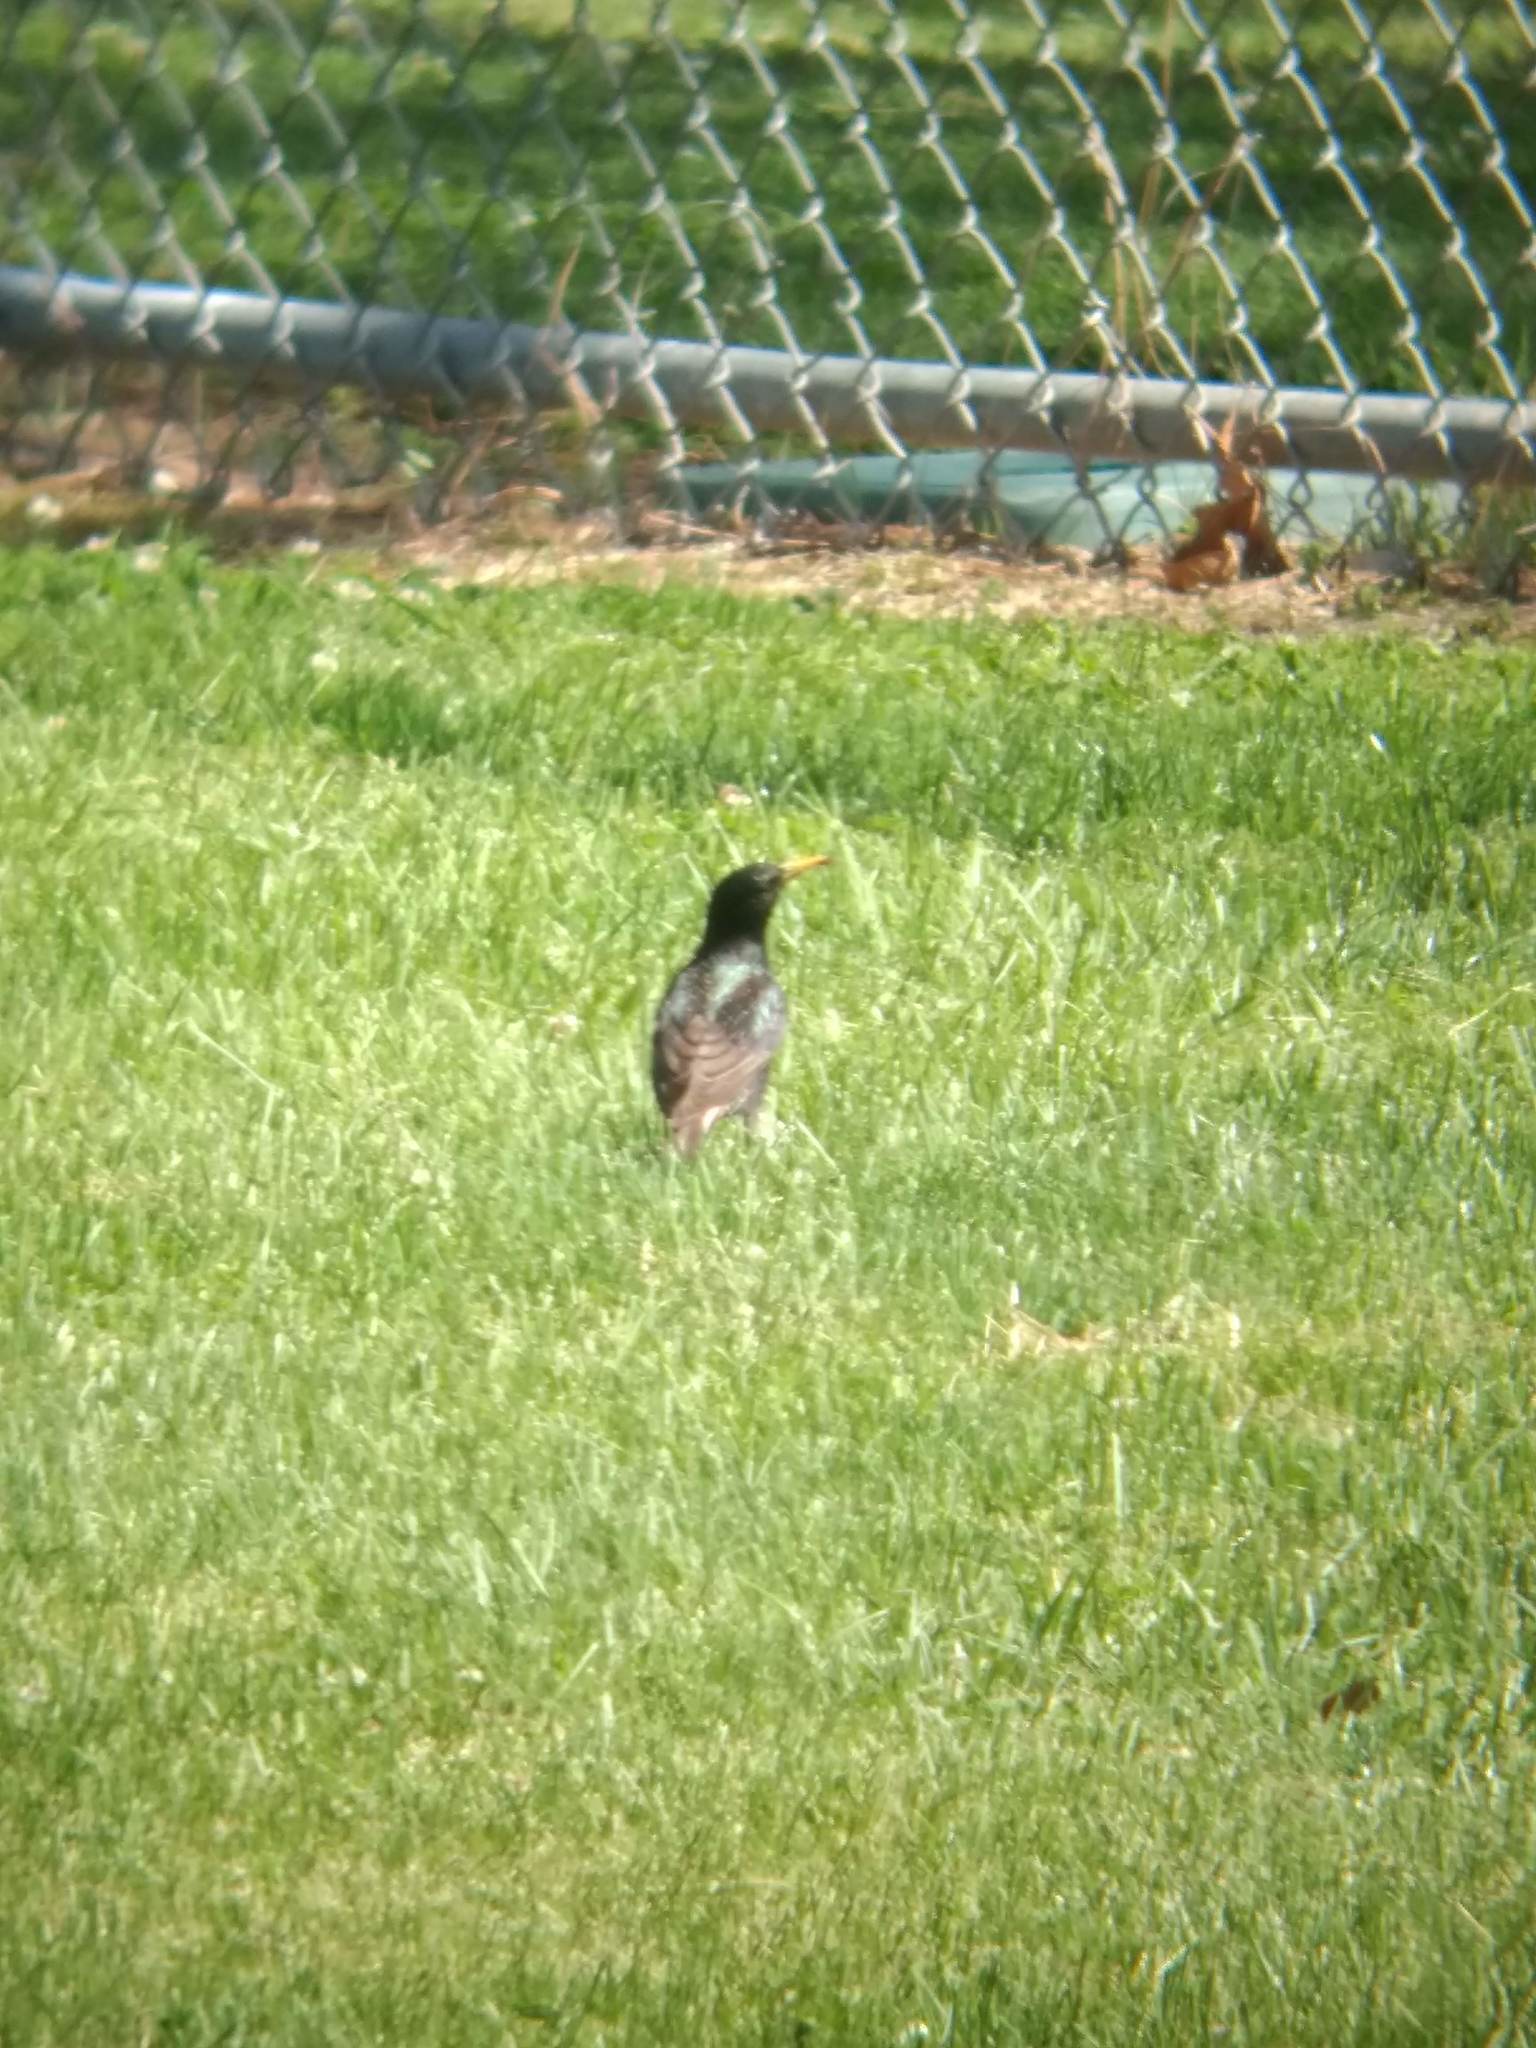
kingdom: Animalia
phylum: Chordata
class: Aves
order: Passeriformes
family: Sturnidae
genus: Sturnus
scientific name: Sturnus vulgaris
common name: Common starling
